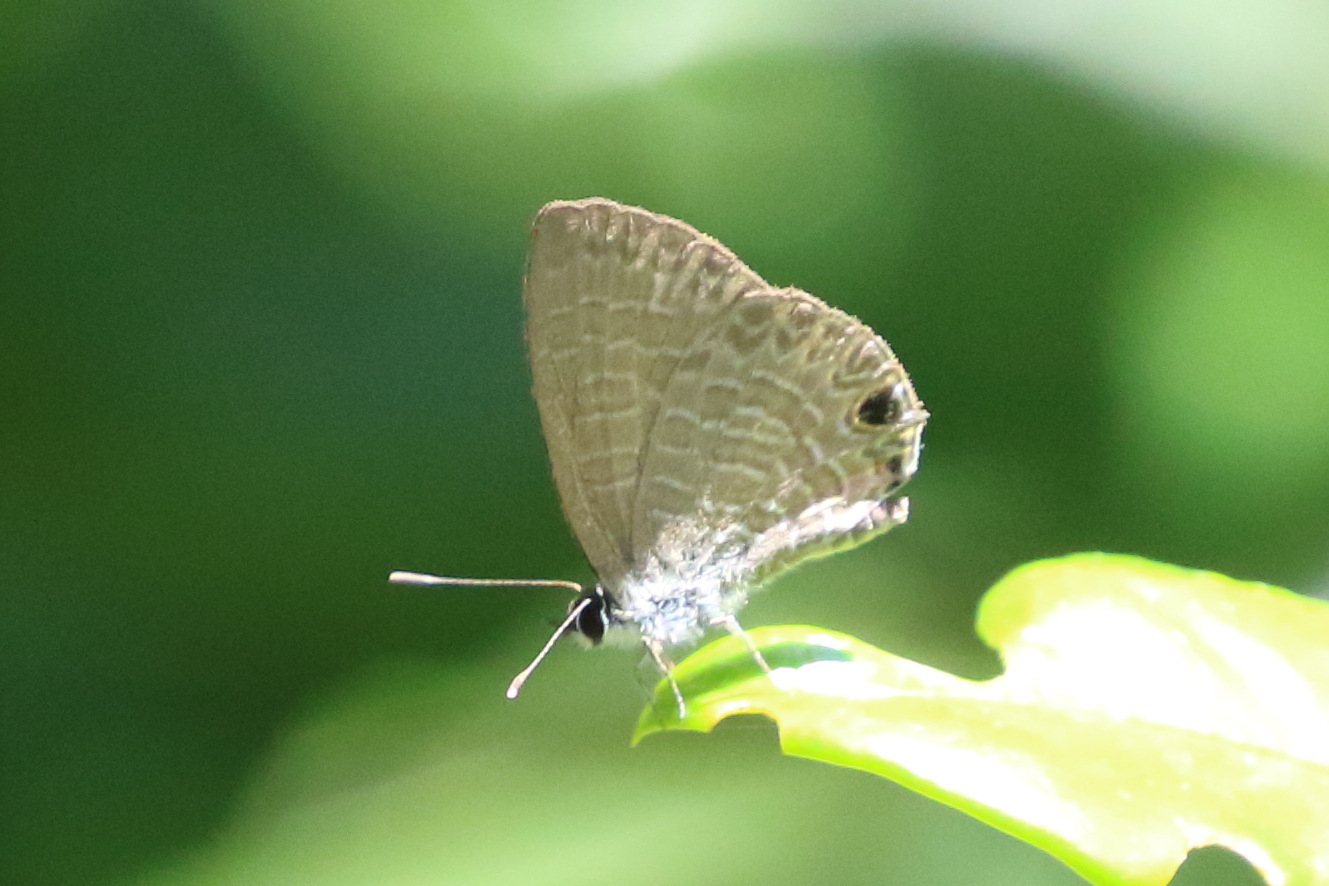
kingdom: Animalia
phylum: Arthropoda
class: Insecta
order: Lepidoptera
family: Lycaenidae
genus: Nacaduba
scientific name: Nacaduba berenice
